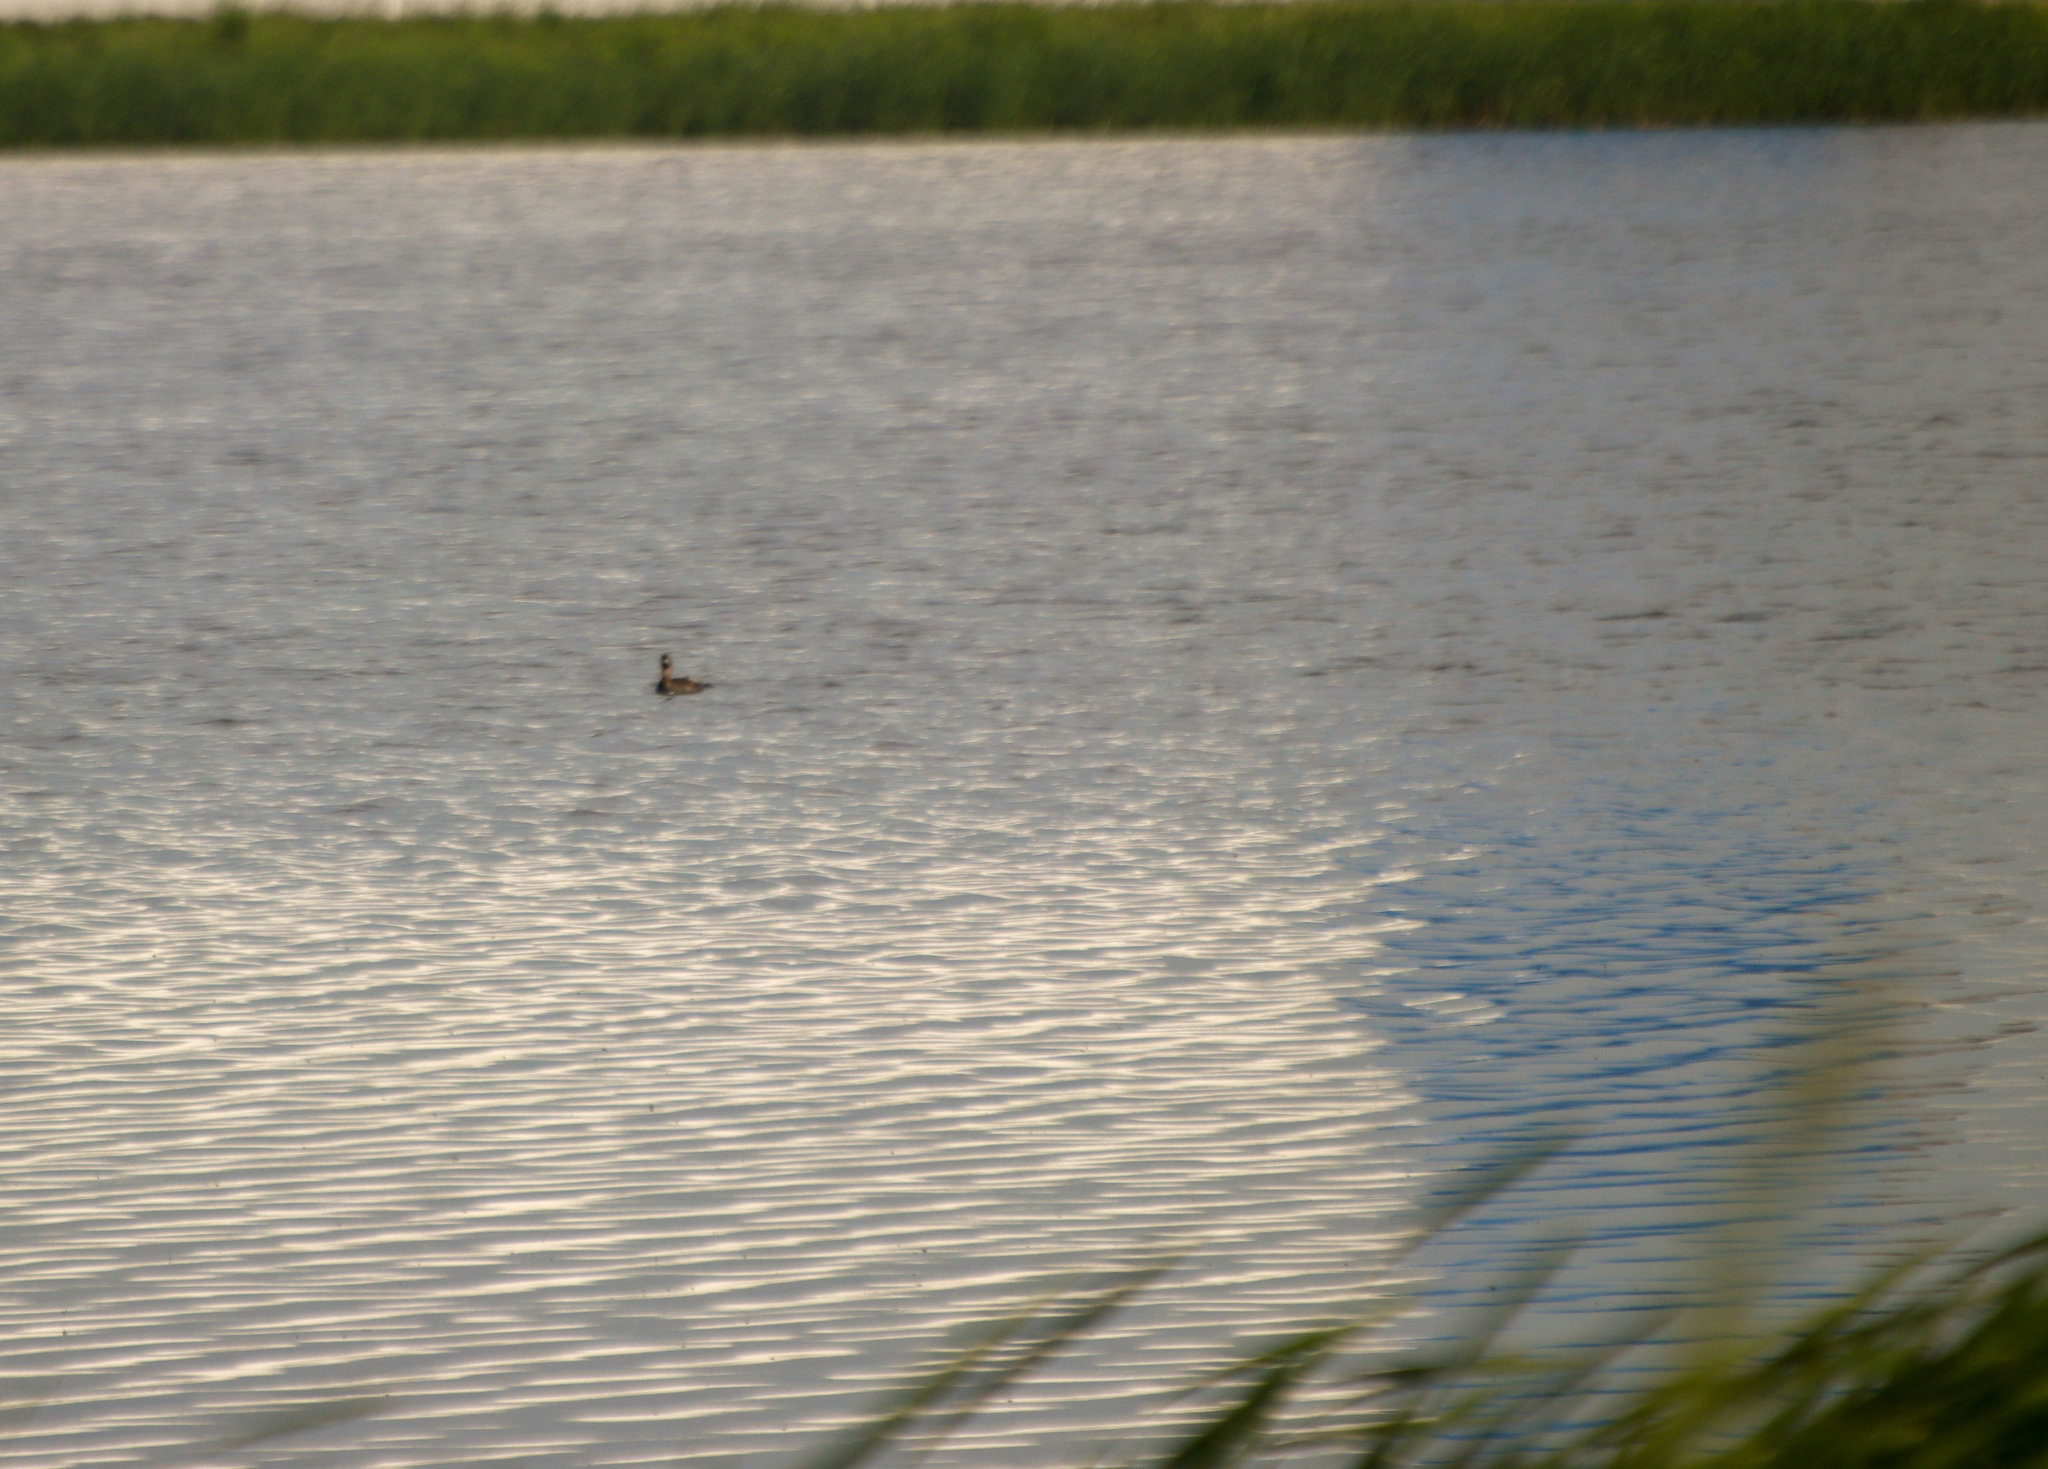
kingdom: Animalia
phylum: Chordata
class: Aves
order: Podicipediformes
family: Podicipedidae
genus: Podilymbus
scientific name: Podilymbus podiceps
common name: Pied-billed grebe
